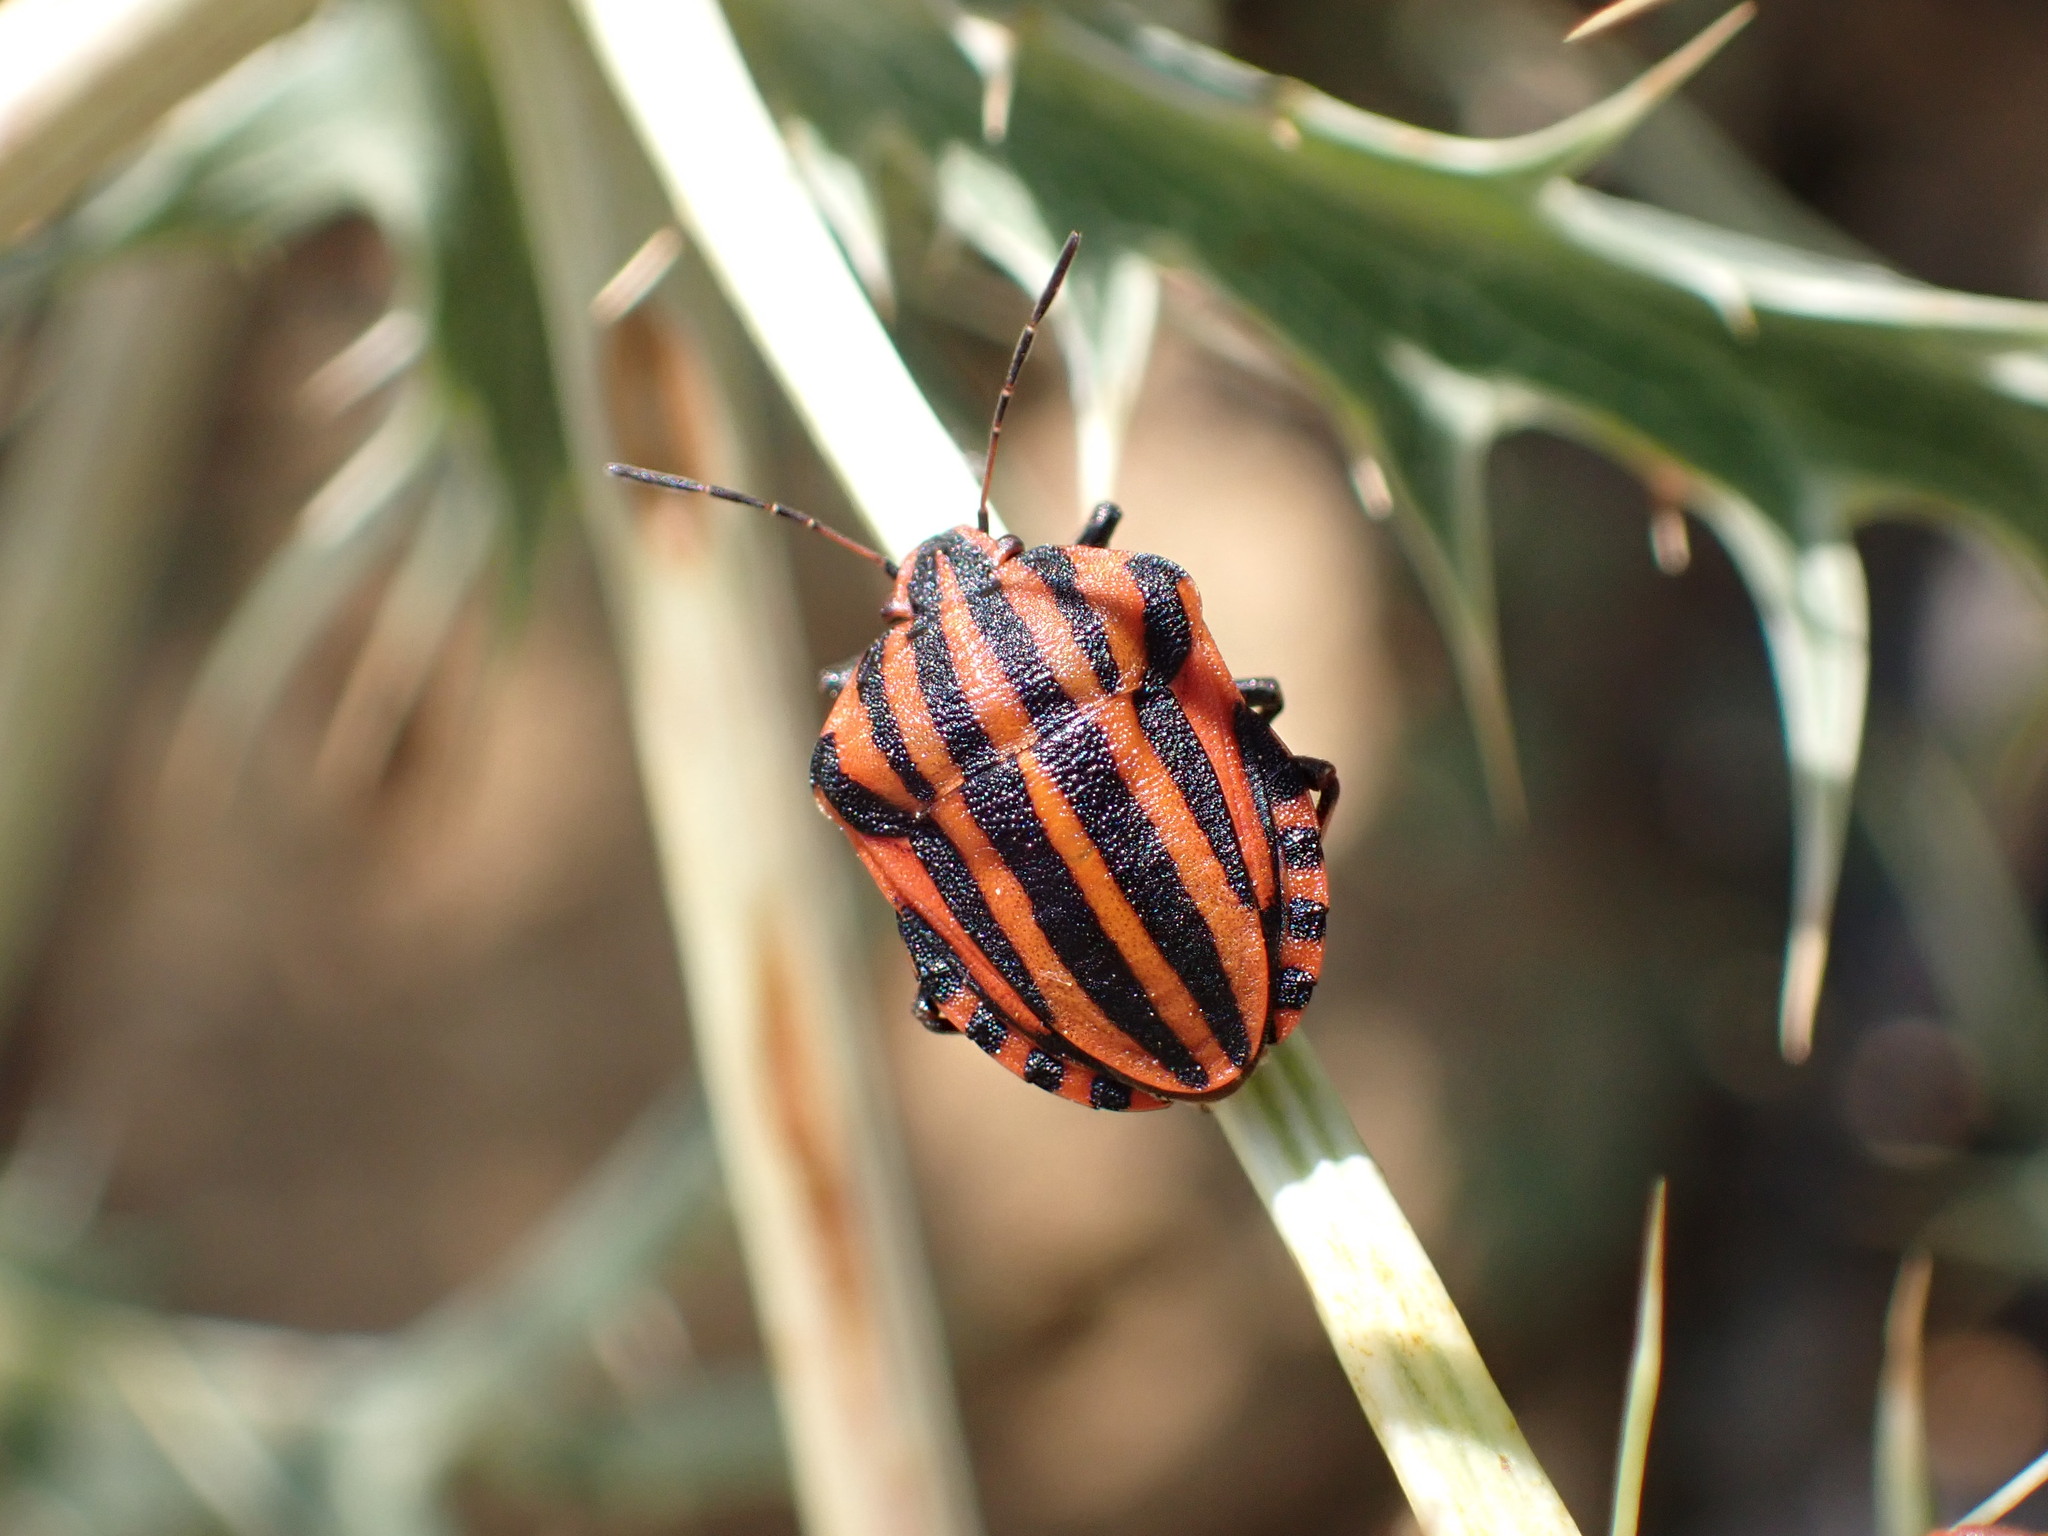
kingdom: Animalia
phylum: Arthropoda
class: Insecta
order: Hemiptera
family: Pentatomidae
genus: Graphosoma
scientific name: Graphosoma italicum
